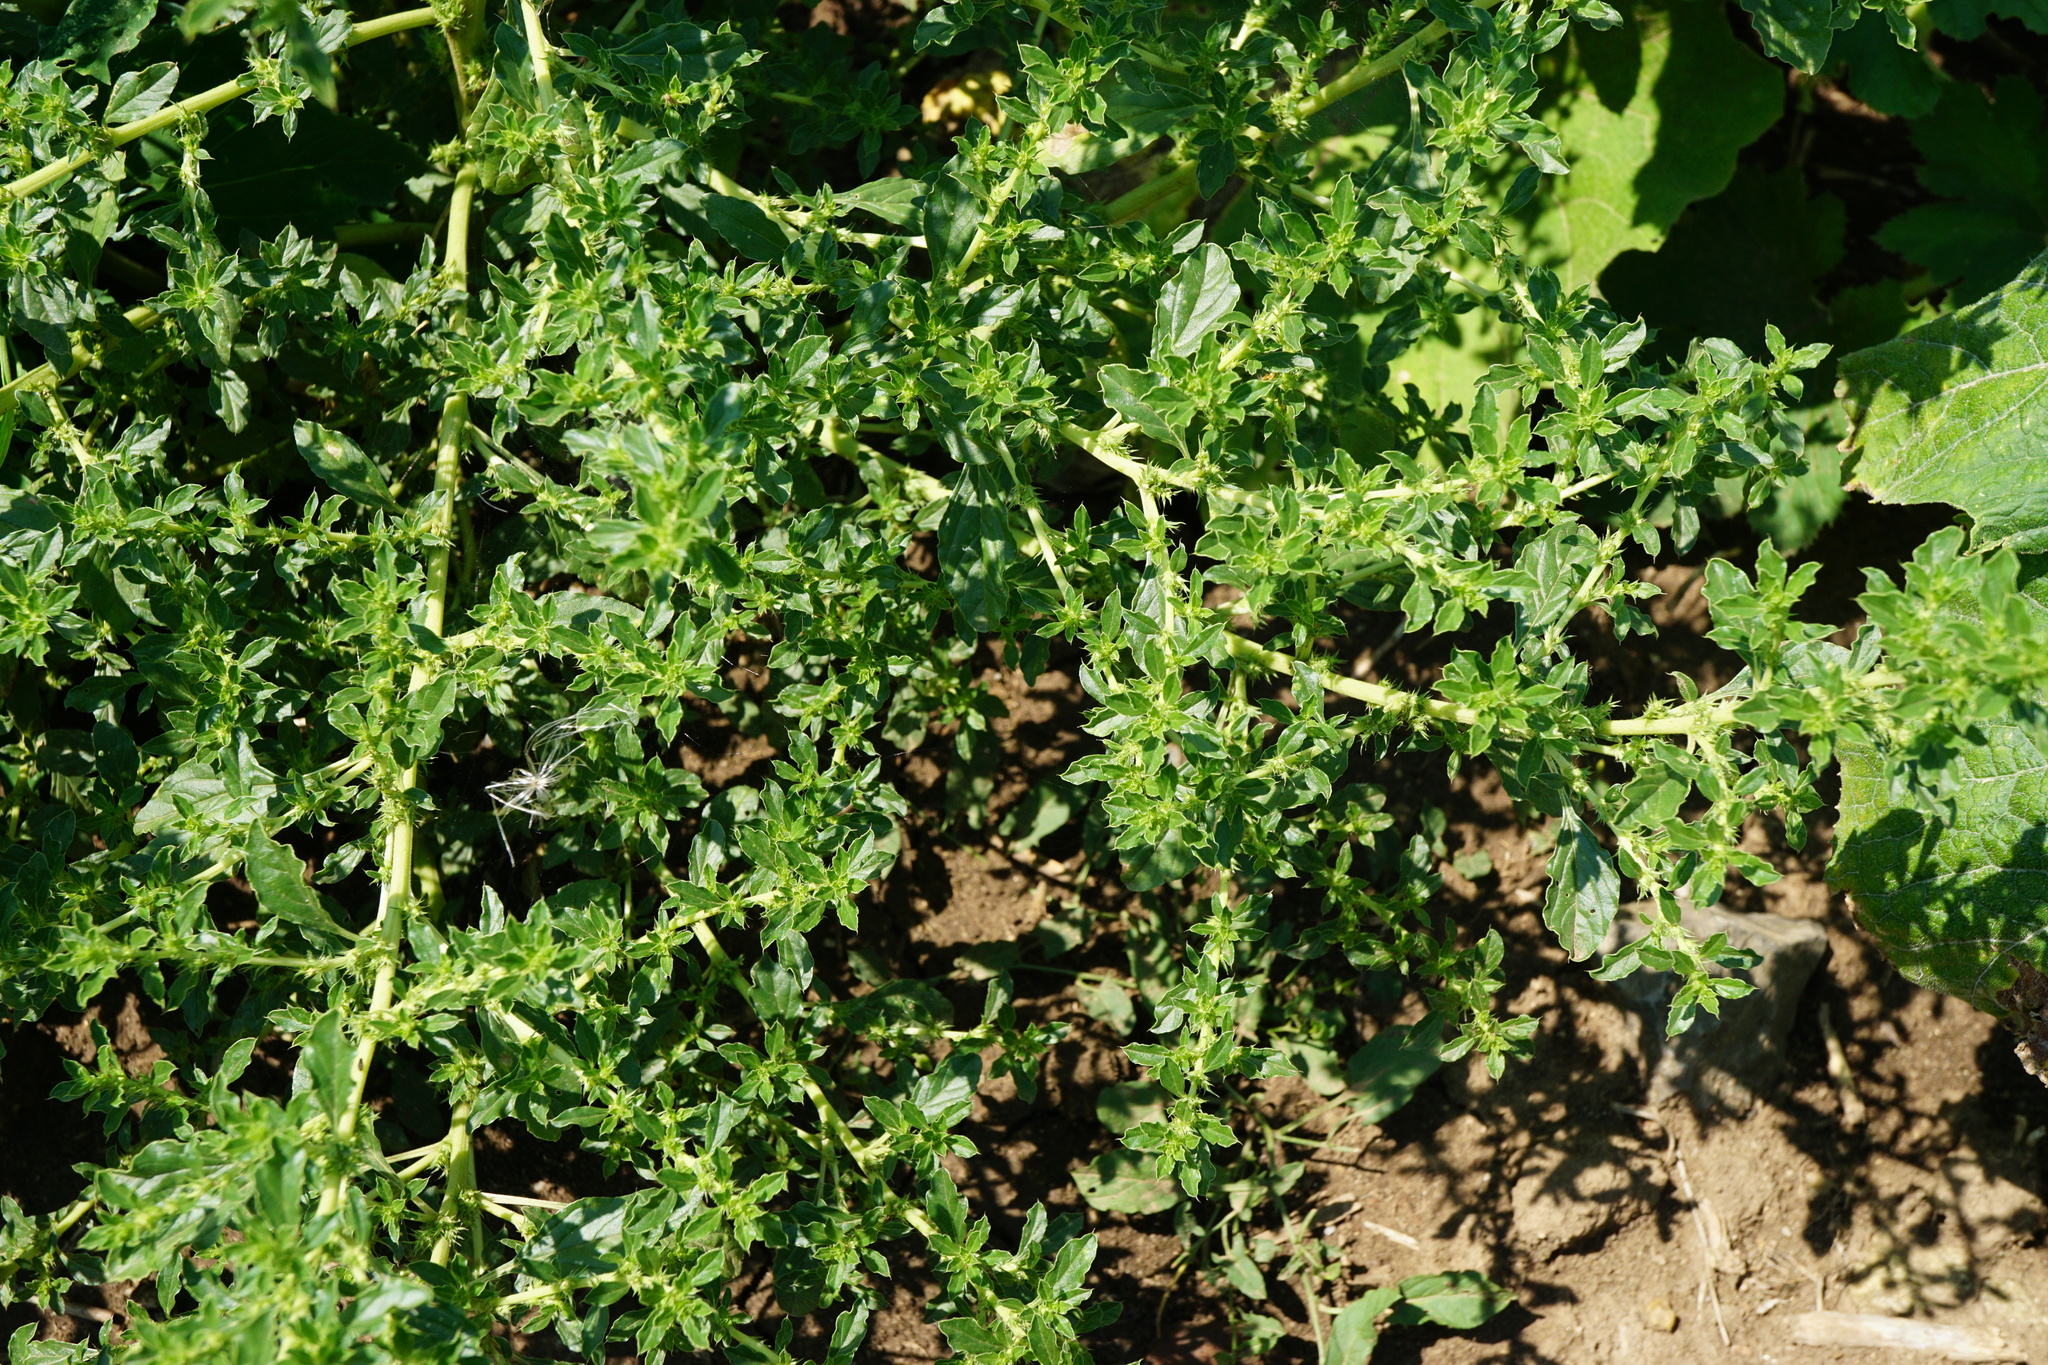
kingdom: Plantae
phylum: Tracheophyta
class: Magnoliopsida
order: Caryophyllales
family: Amaranthaceae
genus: Amaranthus
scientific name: Amaranthus albus
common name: White pigweed
